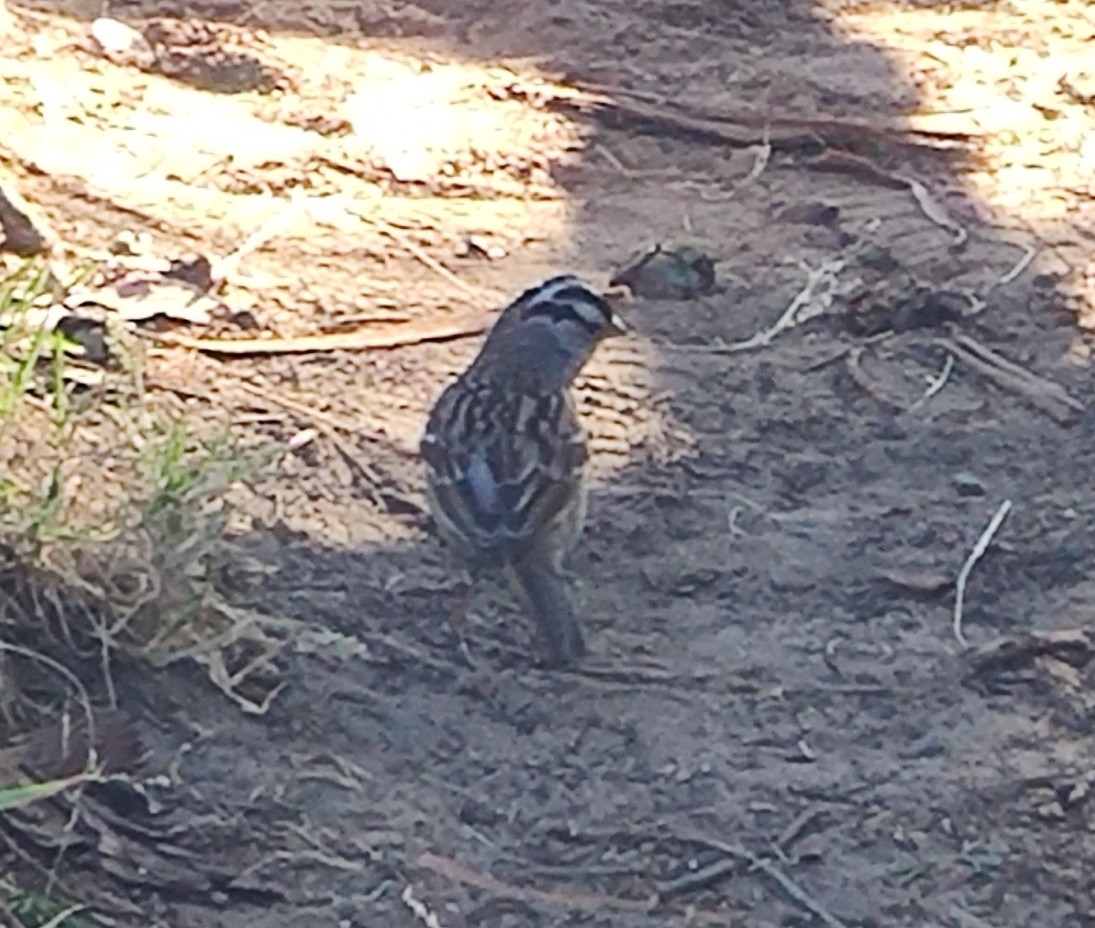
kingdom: Animalia
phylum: Chordata
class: Aves
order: Passeriformes
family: Passerellidae
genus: Zonotrichia
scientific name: Zonotrichia leucophrys
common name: White-crowned sparrow
